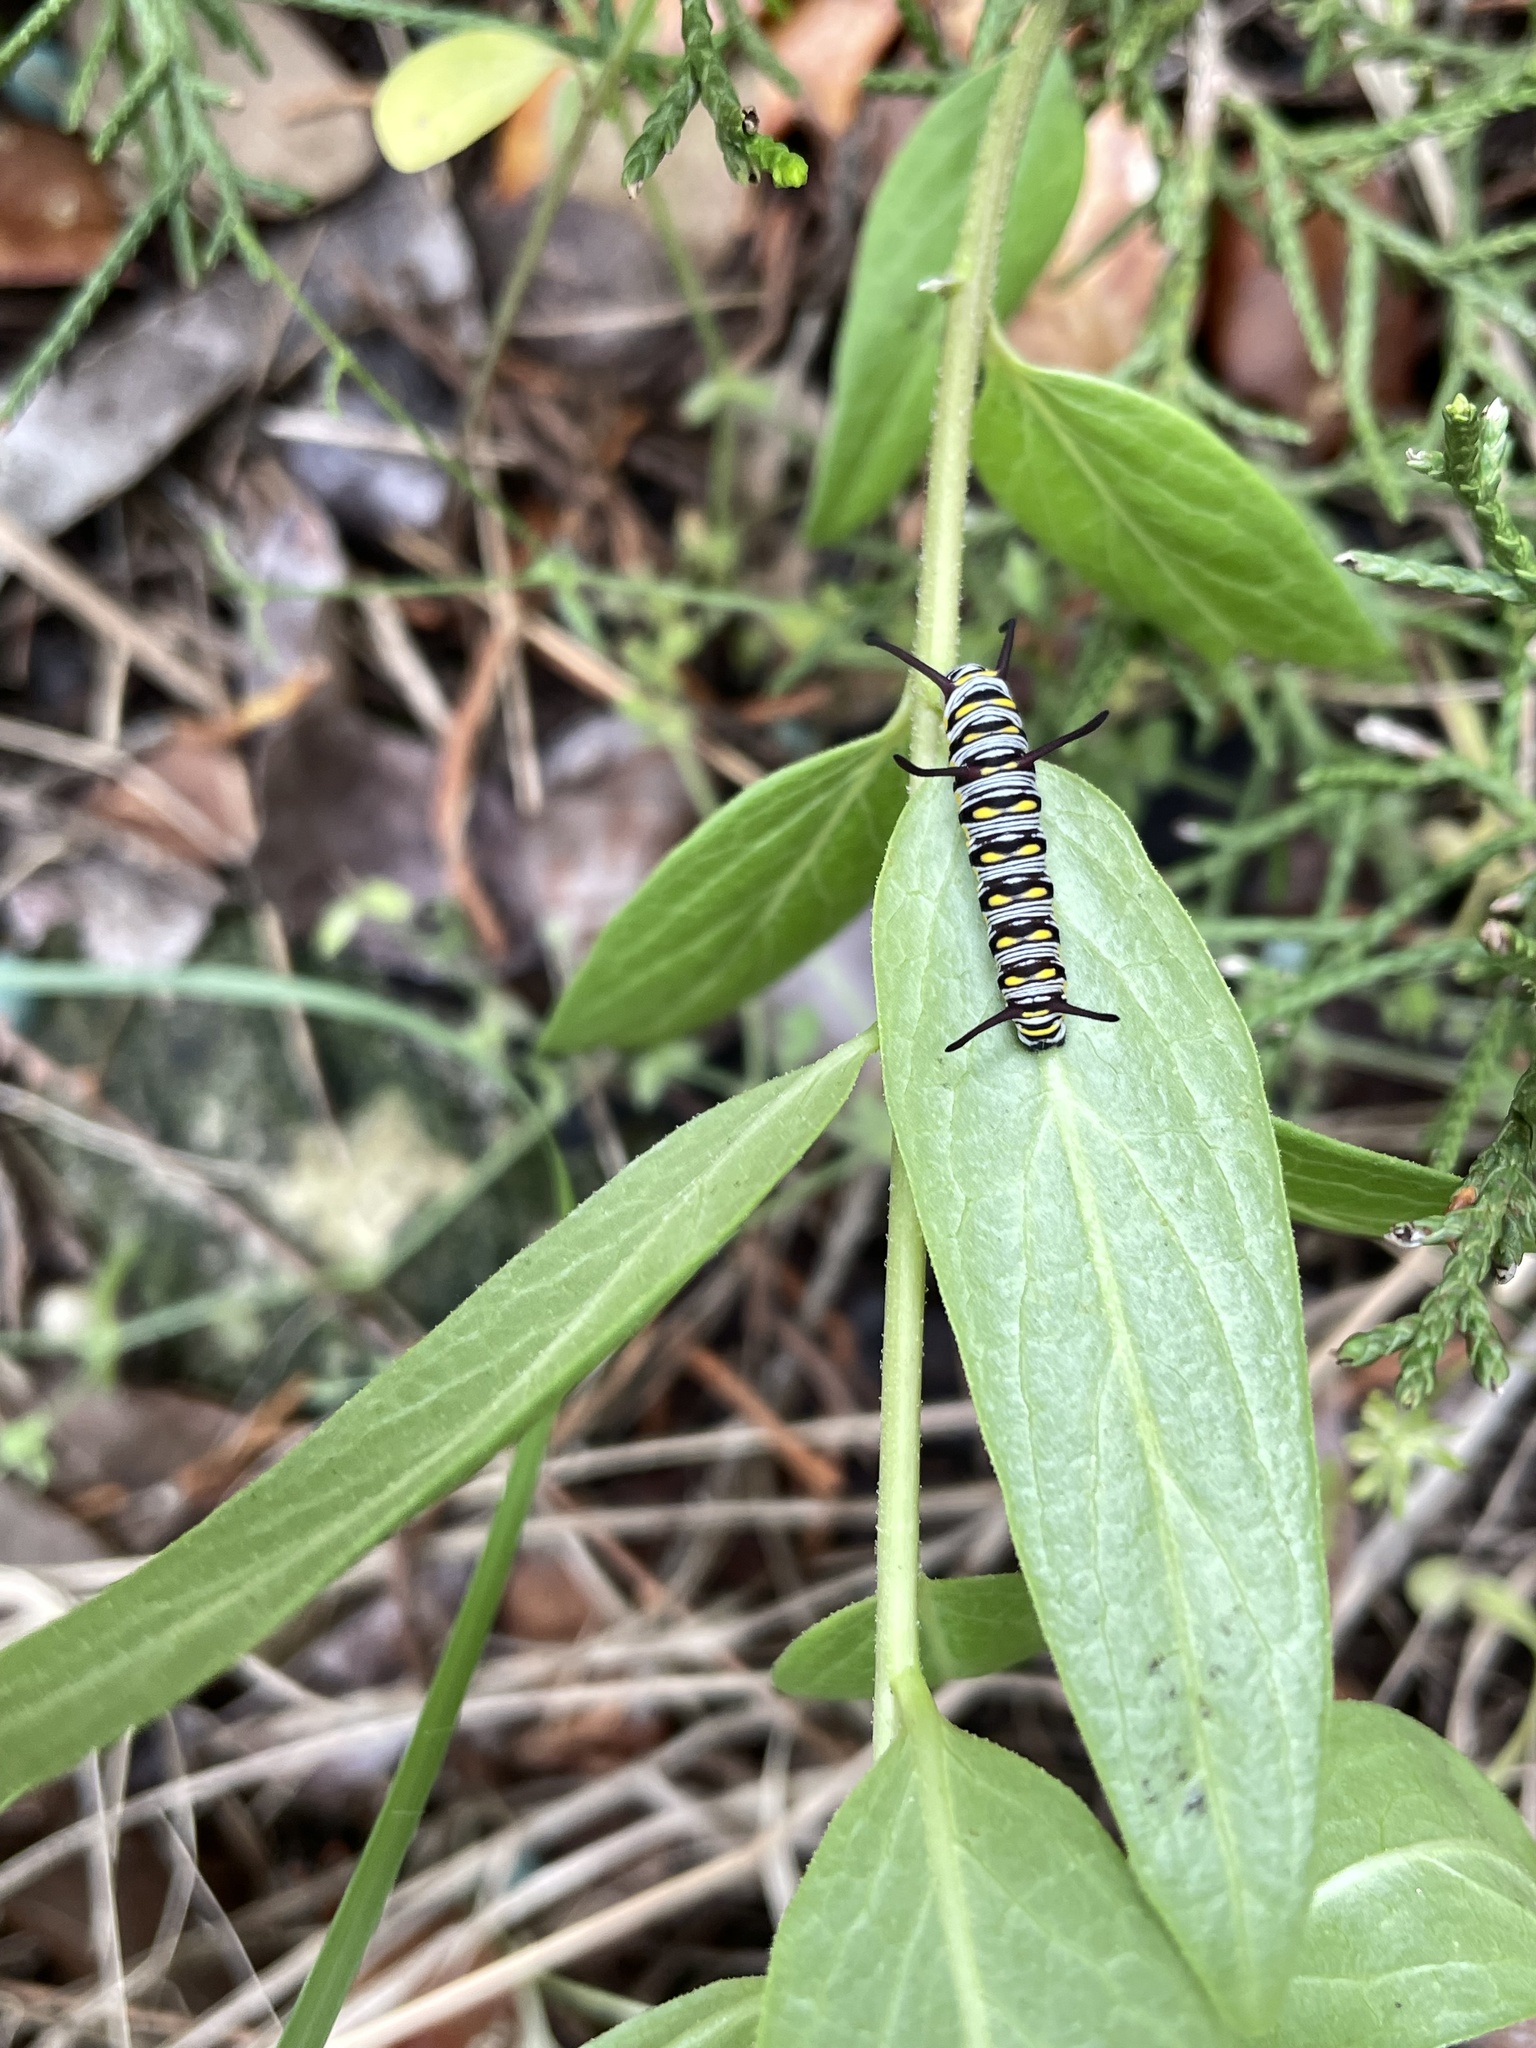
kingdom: Animalia
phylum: Arthropoda
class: Insecta
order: Lepidoptera
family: Nymphalidae
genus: Danaus
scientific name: Danaus gilippus
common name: Queen
